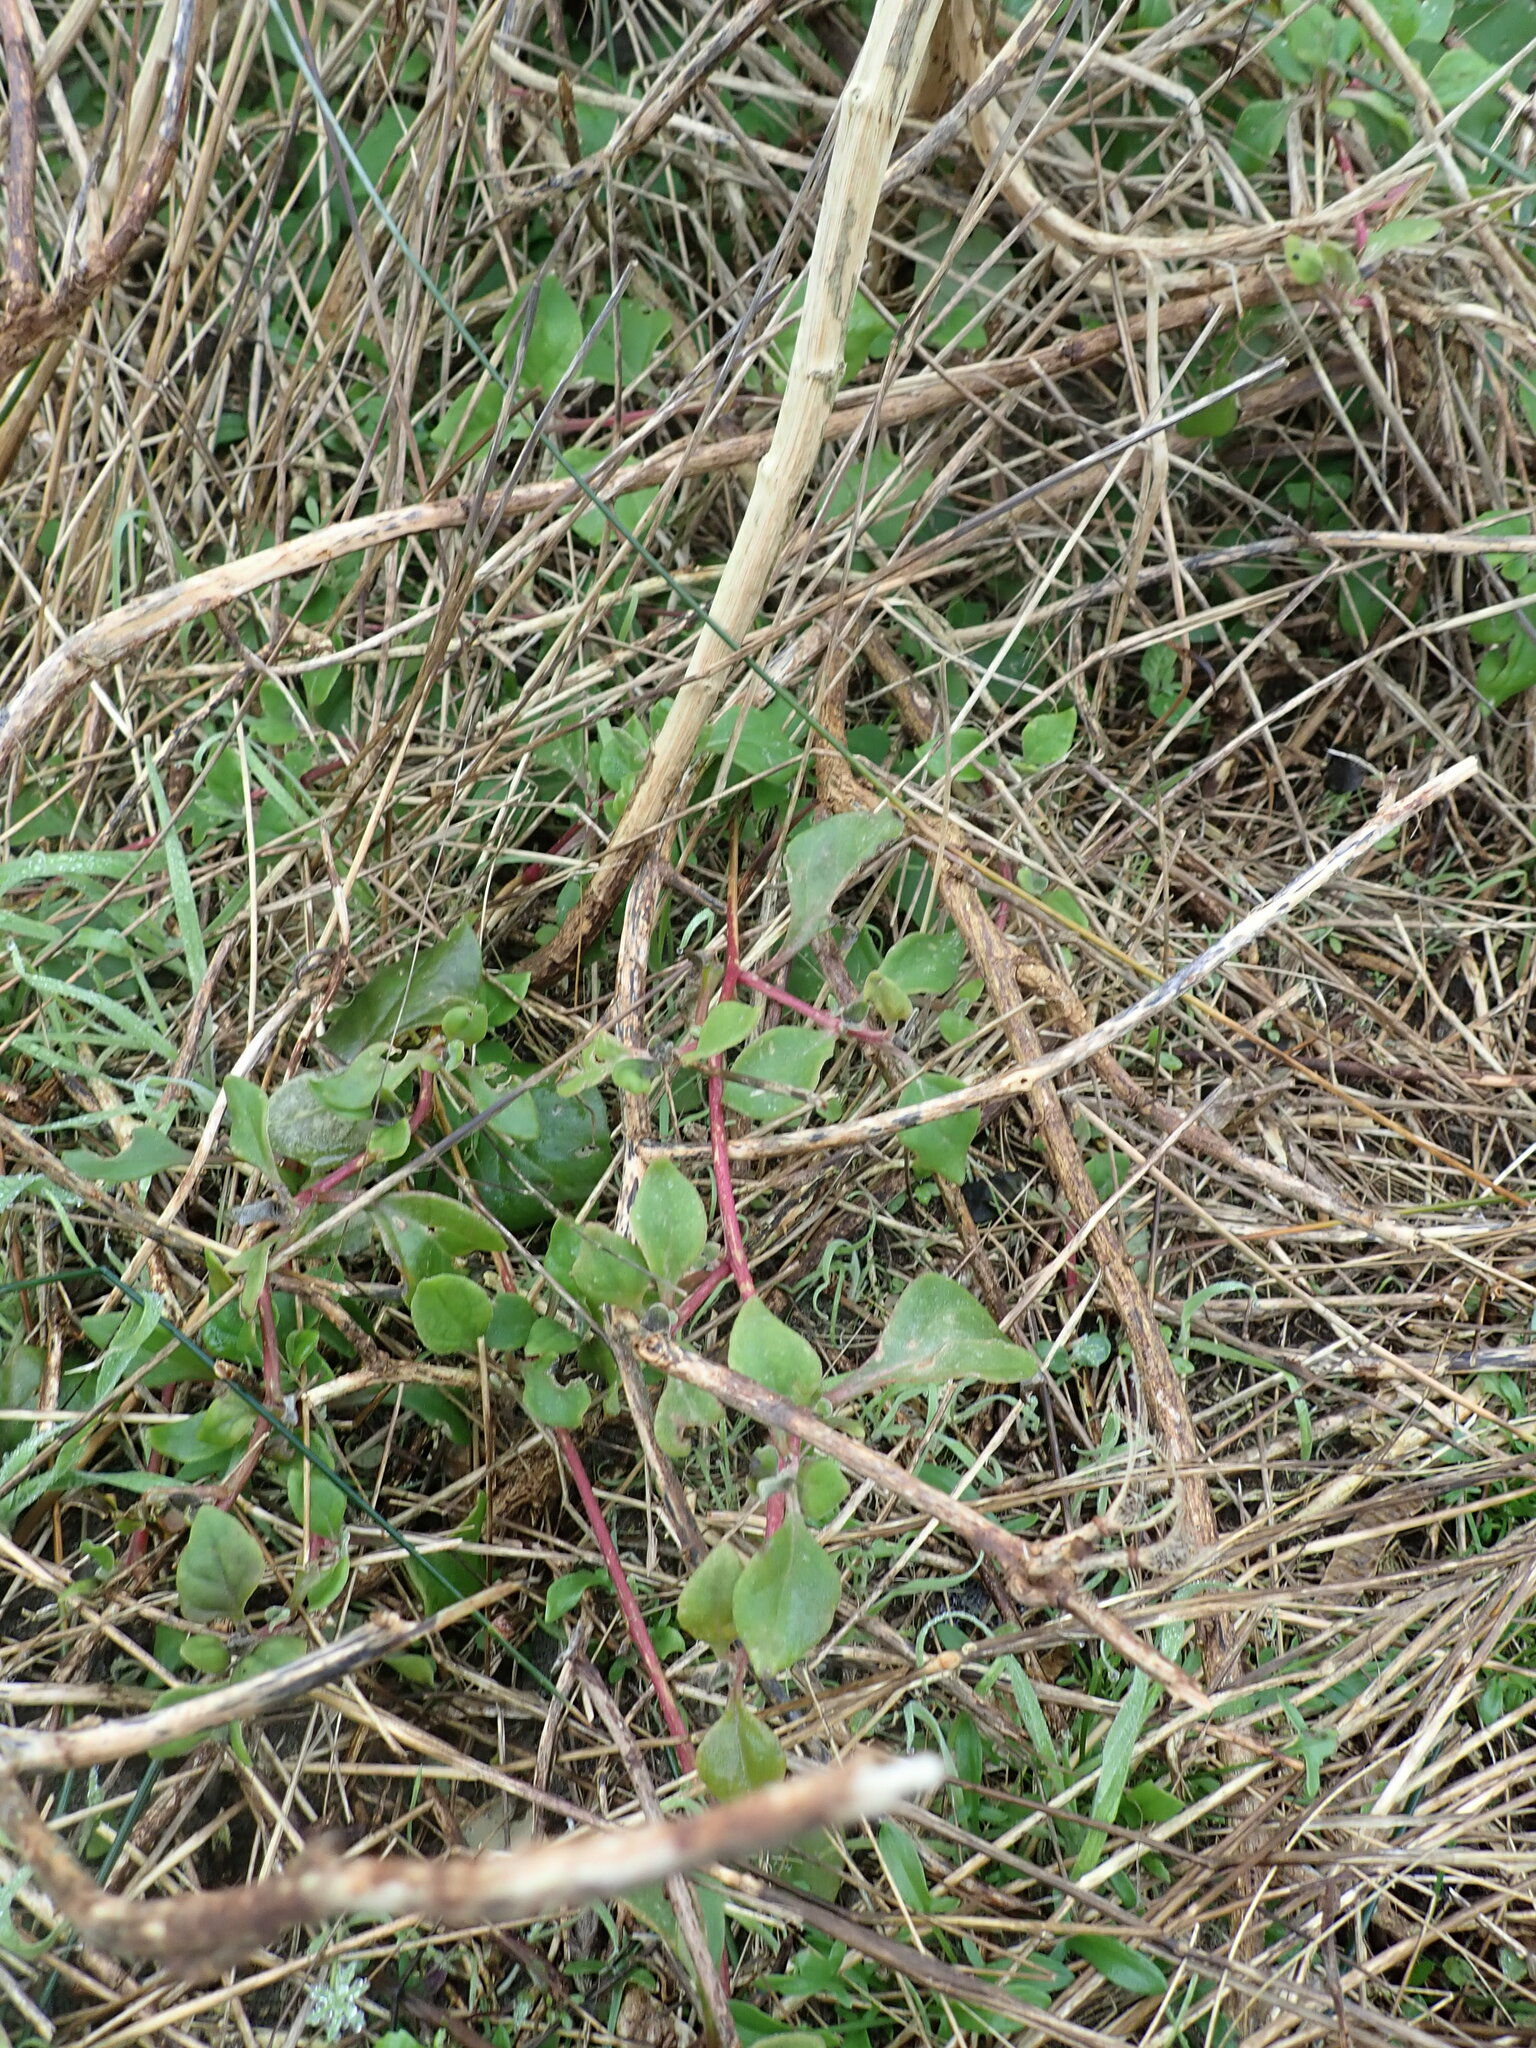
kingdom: Plantae
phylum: Tracheophyta
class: Magnoliopsida
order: Caryophyllales
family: Aizoaceae
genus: Tetragonia
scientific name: Tetragonia implexicoma
